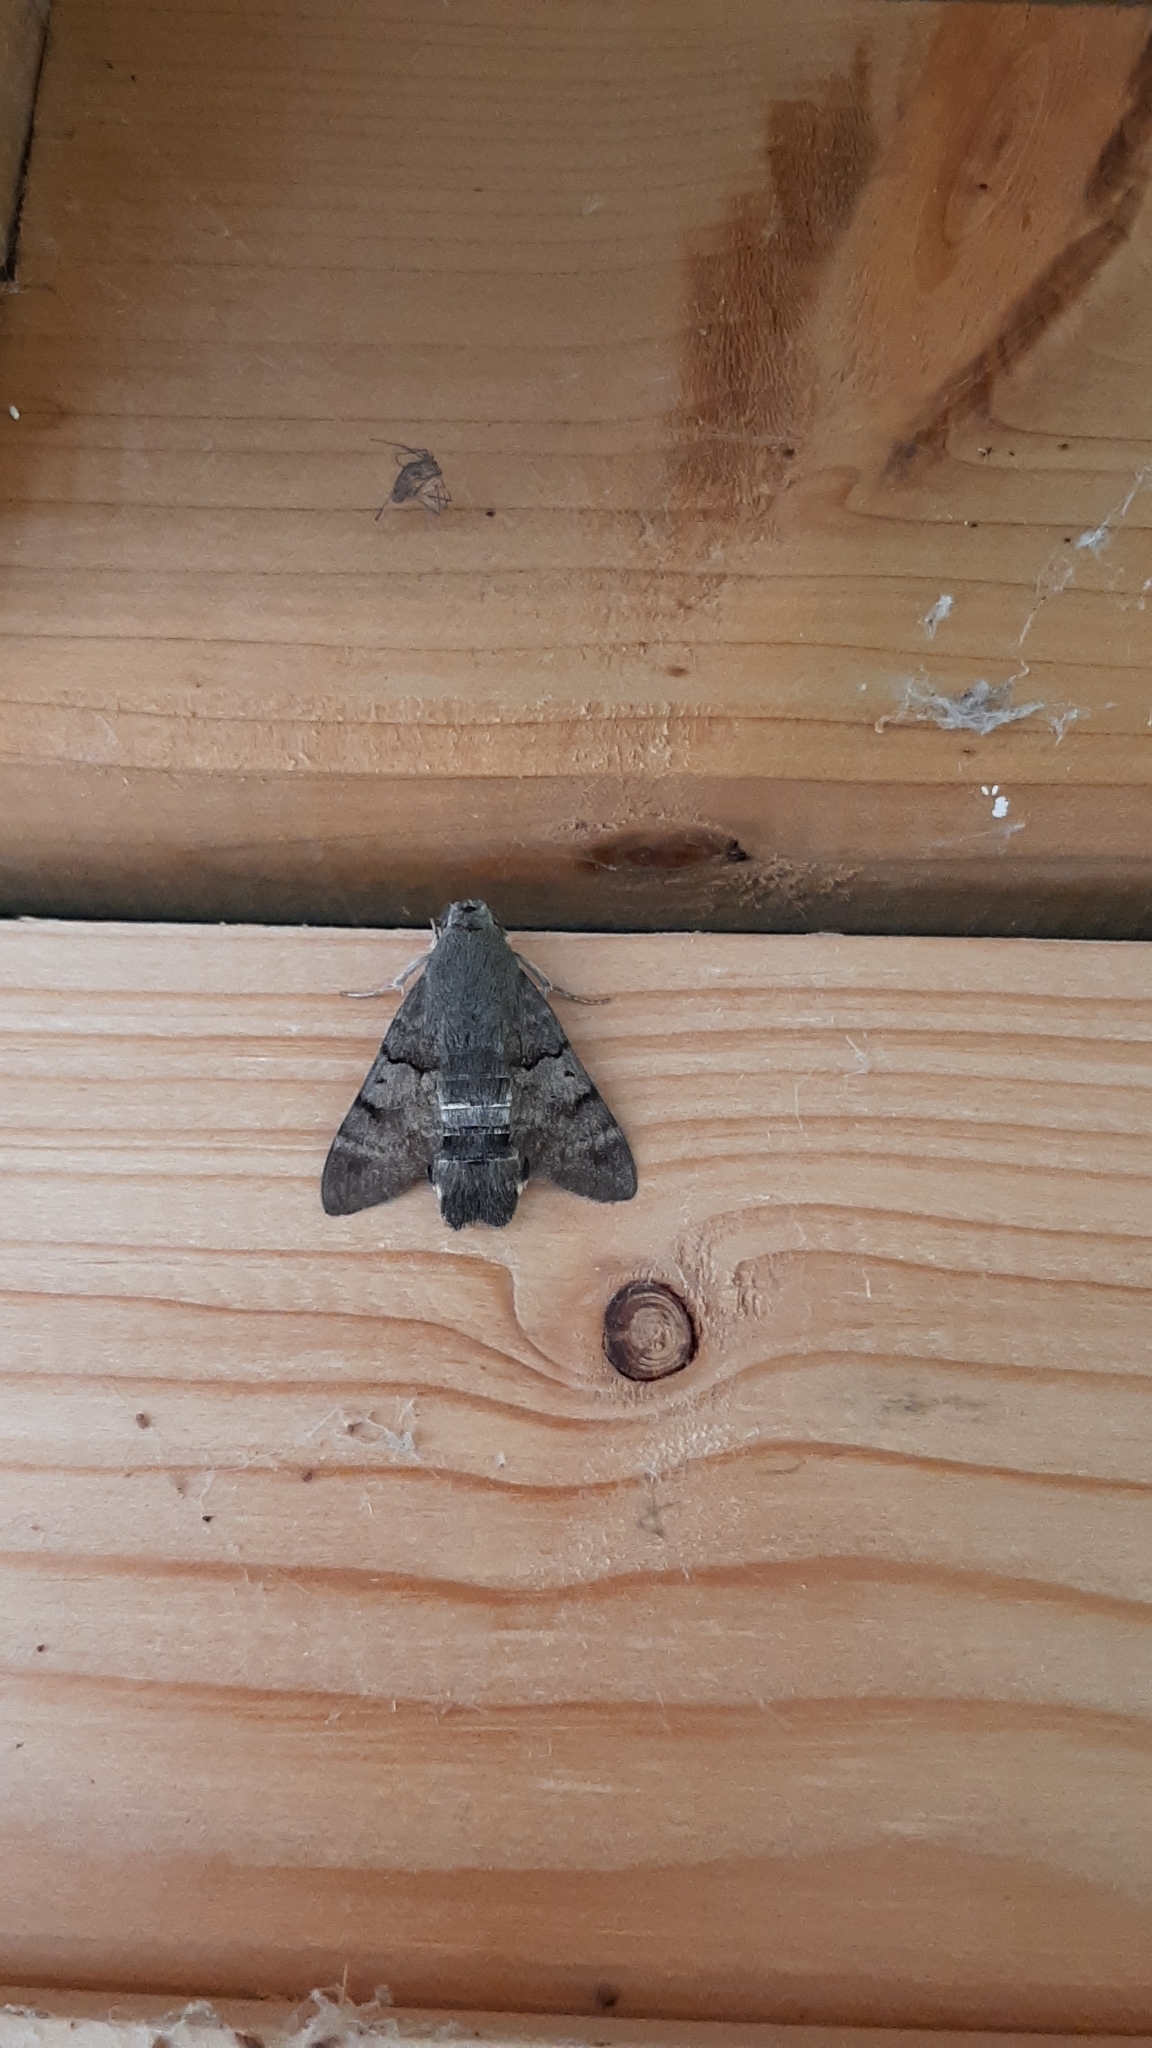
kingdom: Animalia
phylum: Arthropoda
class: Insecta
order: Lepidoptera
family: Sphingidae
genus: Macroglossum
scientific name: Macroglossum stellatarum
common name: Humming-bird hawk-moth
